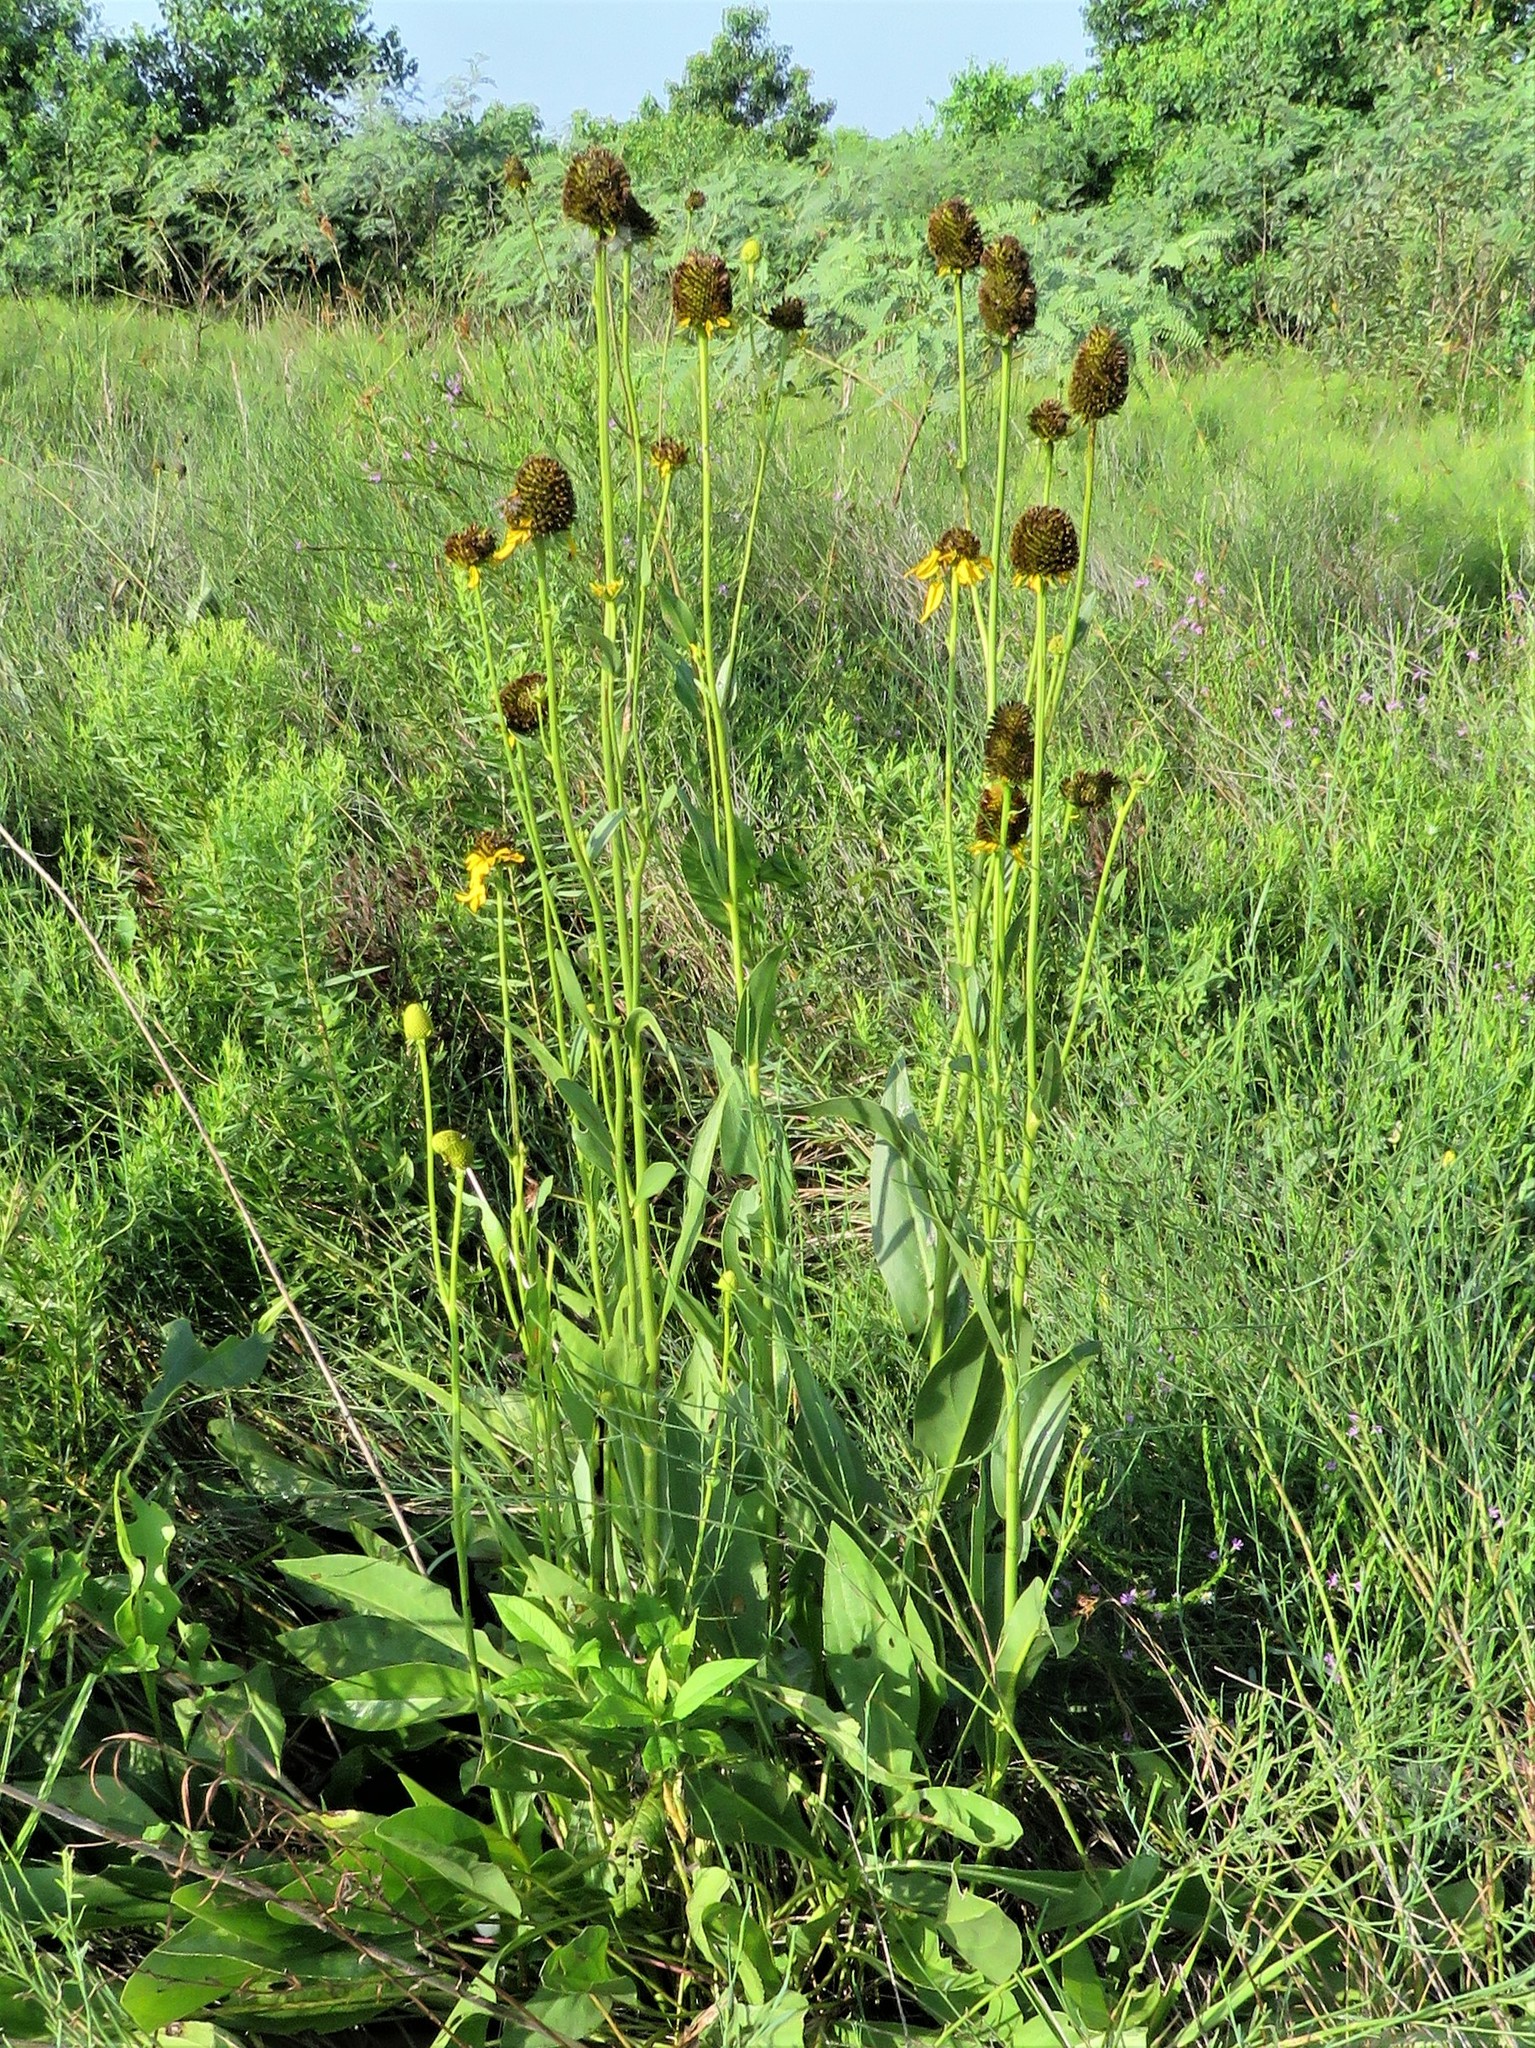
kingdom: Plantae
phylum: Tracheophyta
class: Magnoliopsida
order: Asterales
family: Asteraceae
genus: Rudbeckia
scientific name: Rudbeckia texana
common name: Texas coneflower
